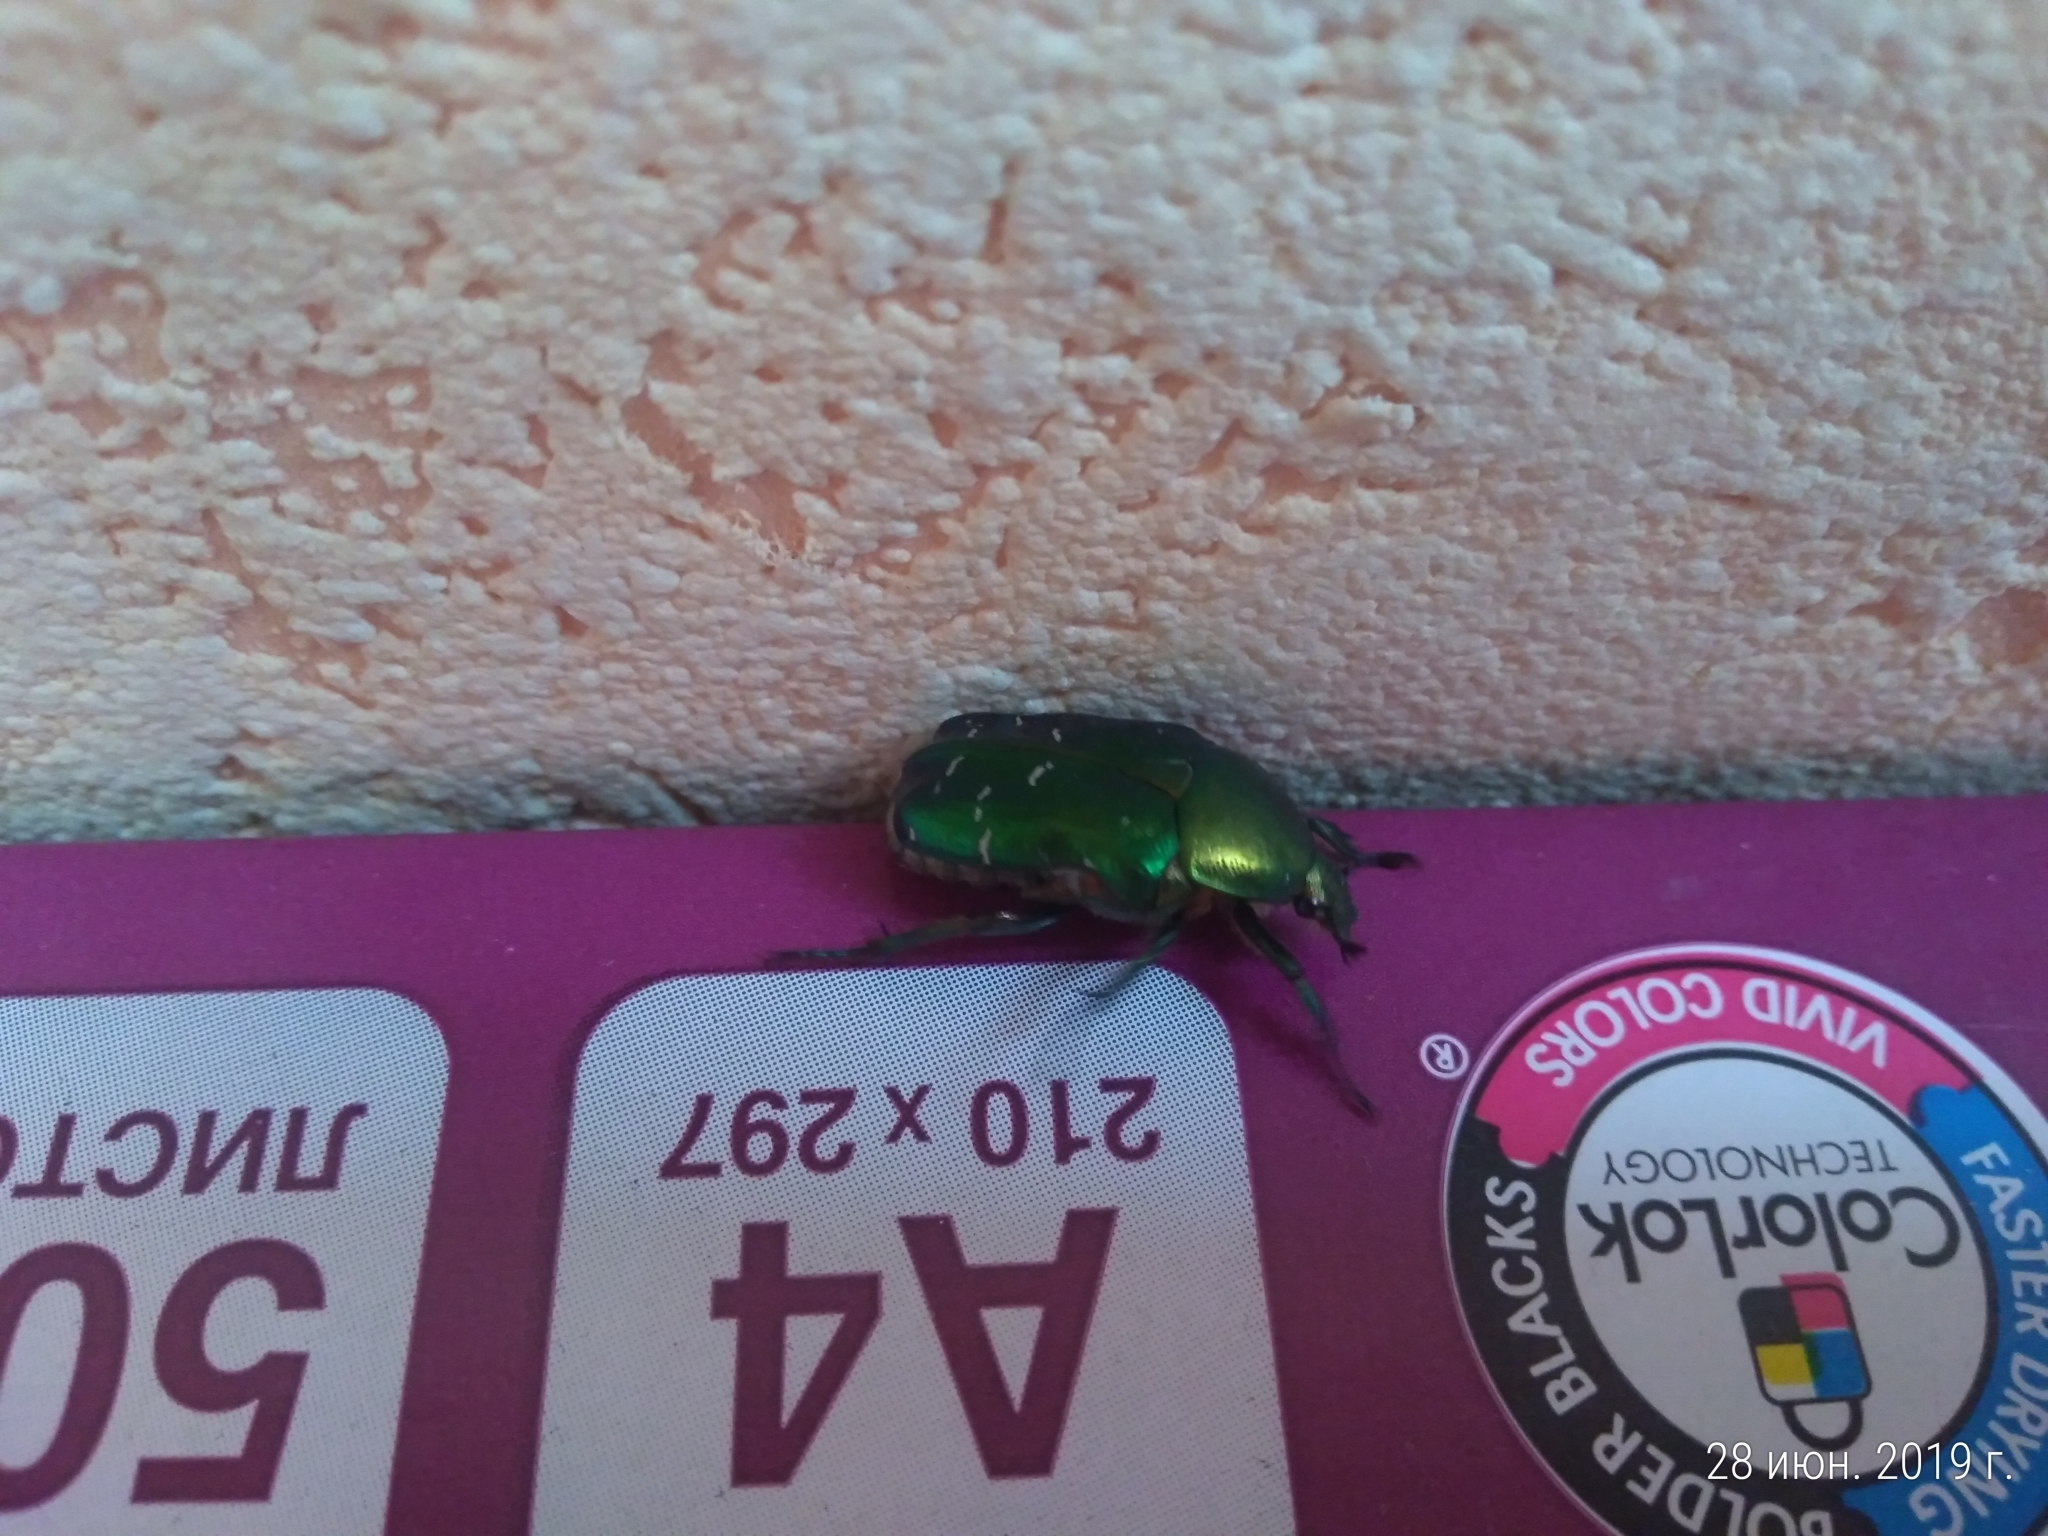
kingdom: Animalia
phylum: Arthropoda
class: Insecta
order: Coleoptera
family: Scarabaeidae
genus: Cetonia
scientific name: Cetonia aurata
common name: Rose chafer
